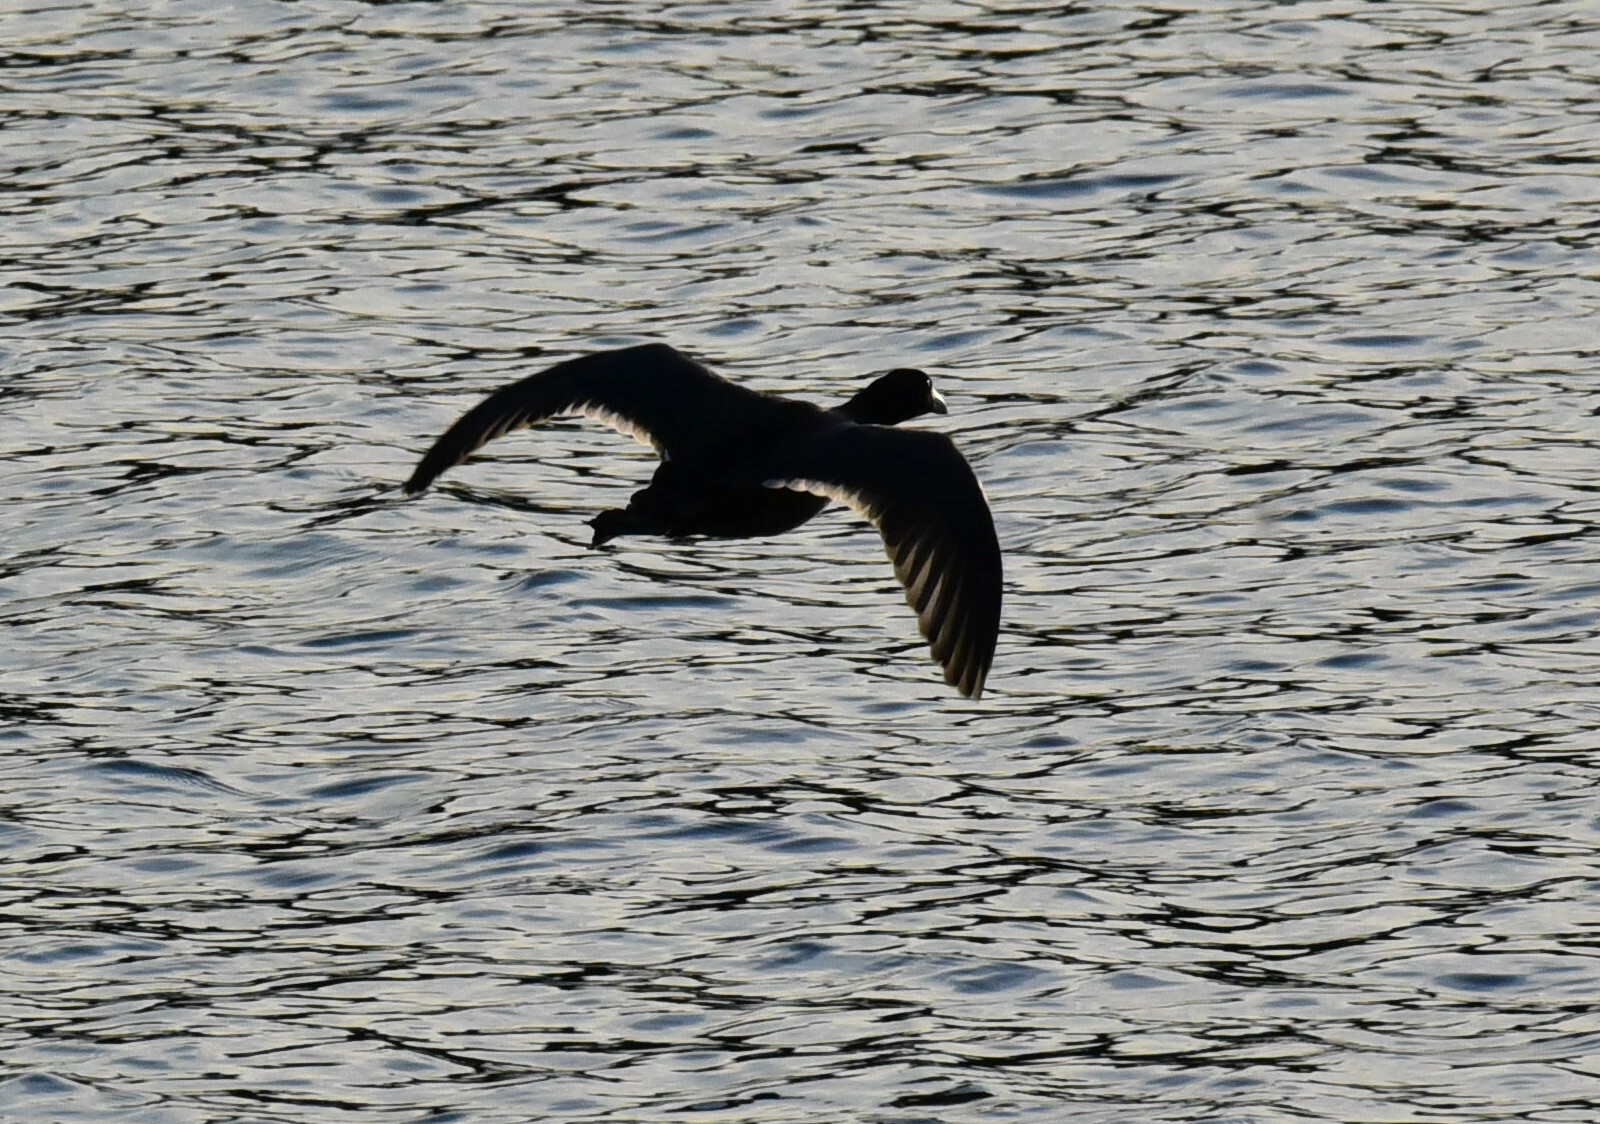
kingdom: Animalia
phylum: Chordata
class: Aves
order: Gruiformes
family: Rallidae
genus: Fulica
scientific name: Fulica americana
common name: American coot
